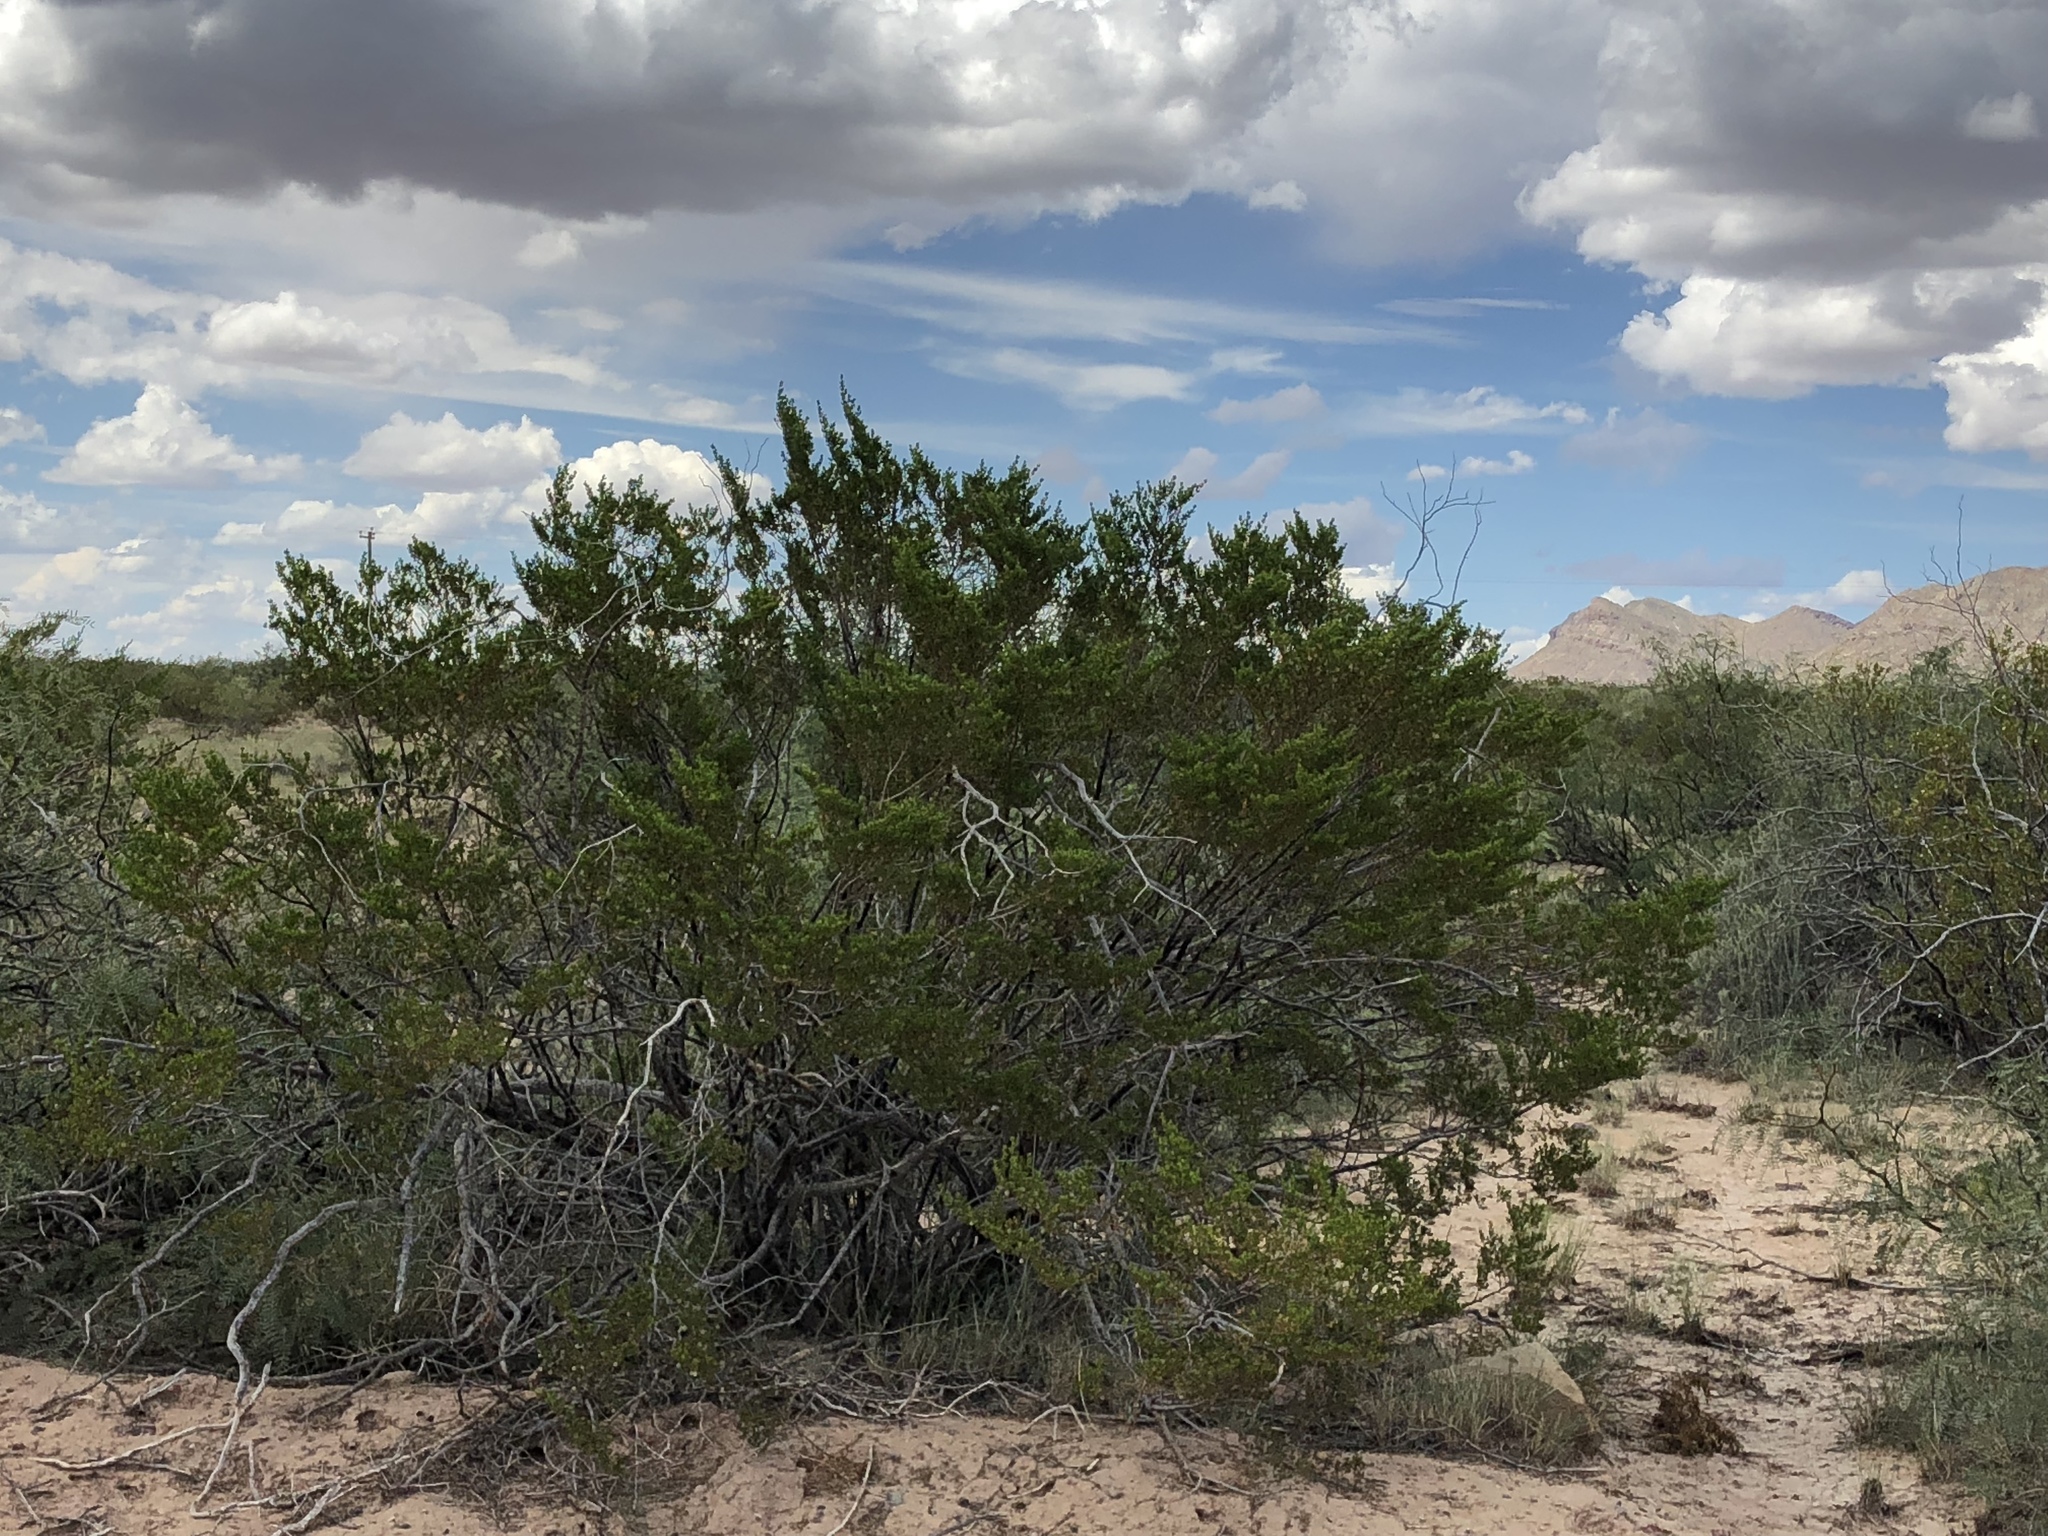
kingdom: Plantae
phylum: Tracheophyta
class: Magnoliopsida
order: Zygophyllales
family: Zygophyllaceae
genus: Larrea
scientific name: Larrea tridentata
